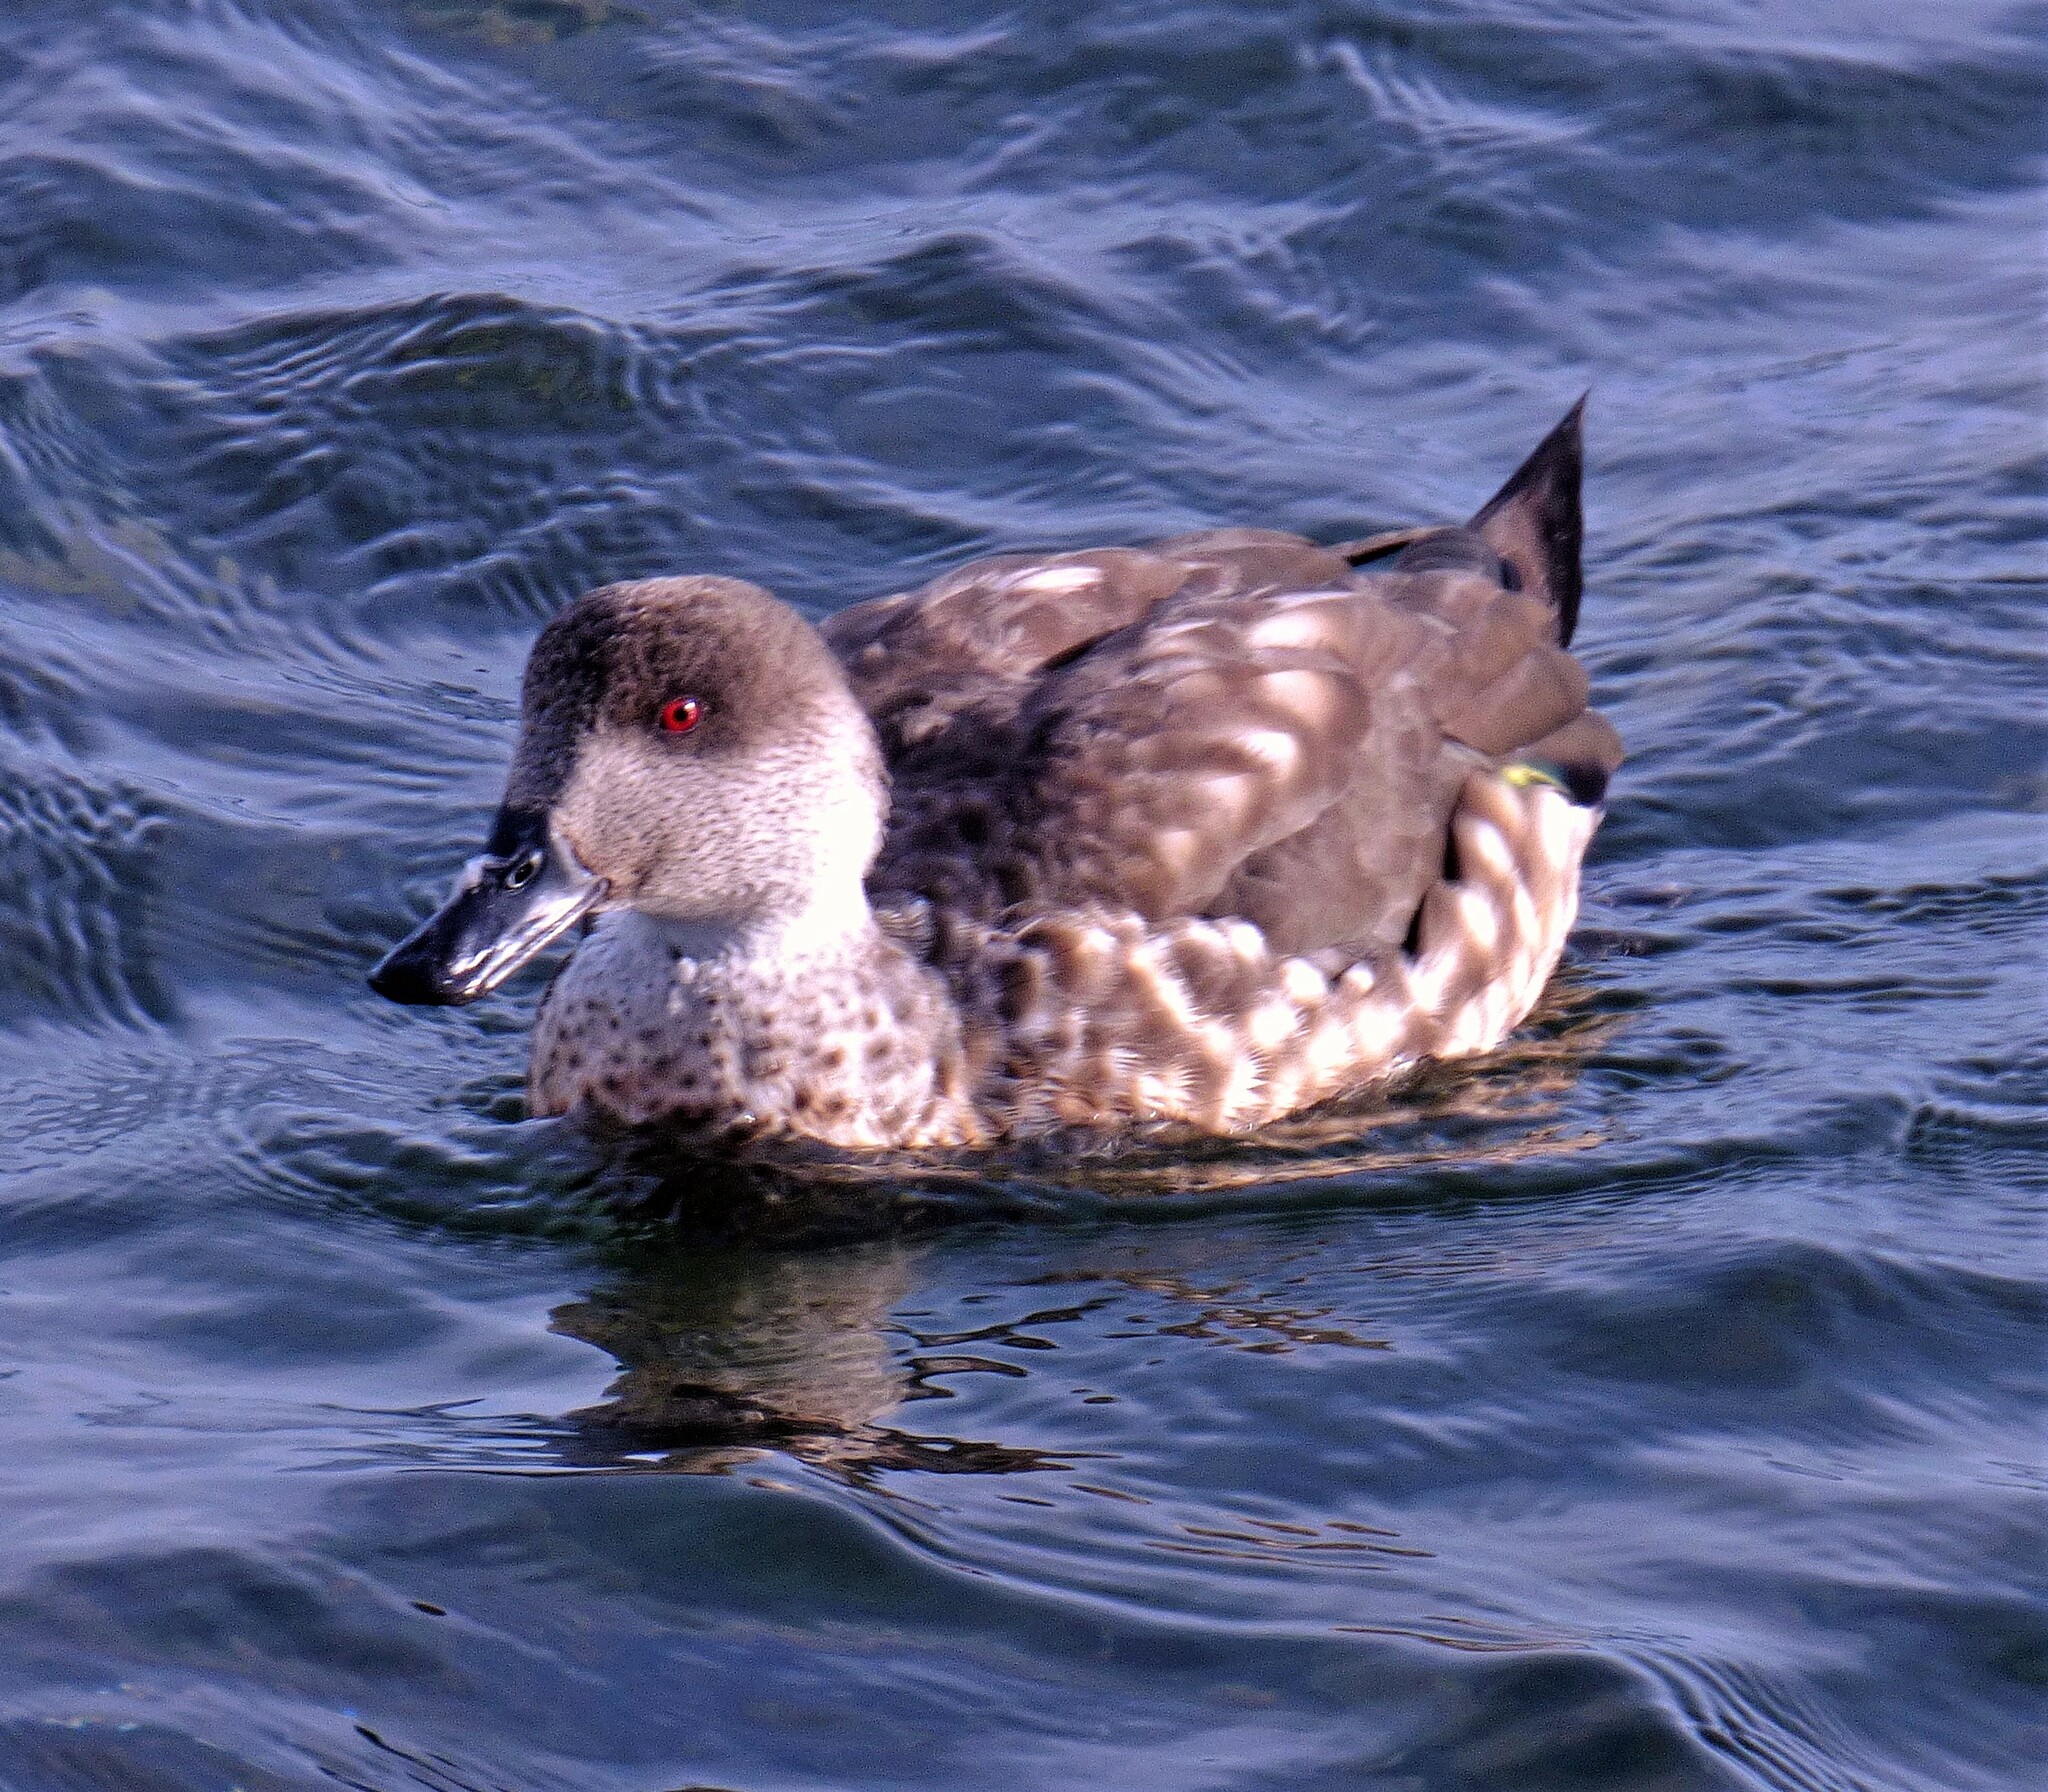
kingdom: Animalia
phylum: Chordata
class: Aves
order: Anseriformes
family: Anatidae
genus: Lophonetta
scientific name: Lophonetta specularioides
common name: Crested duck
